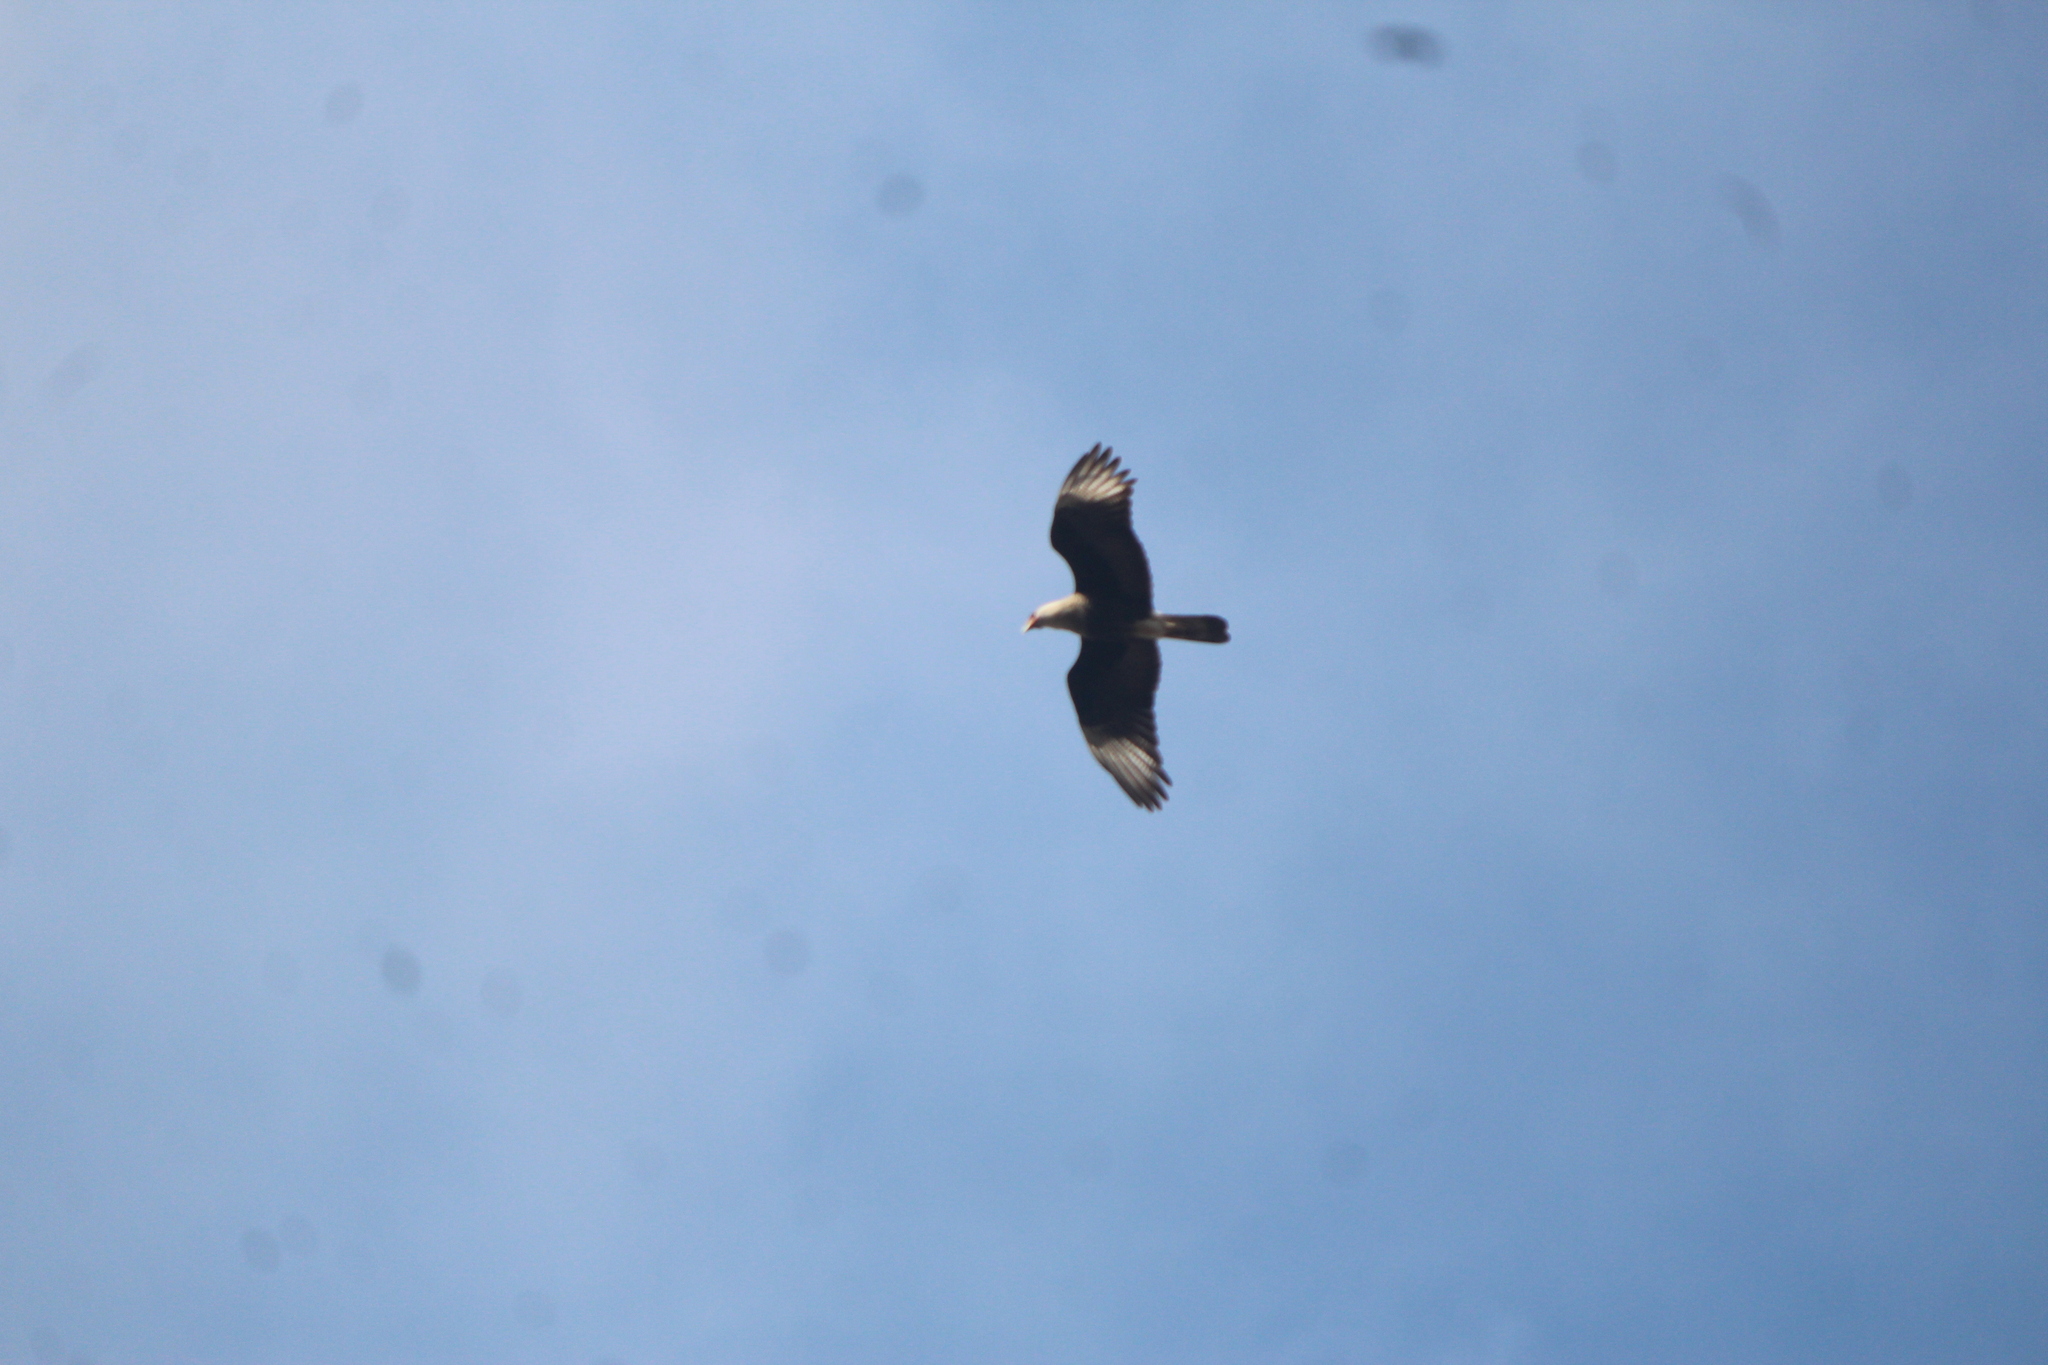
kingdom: Animalia
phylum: Chordata
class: Aves
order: Falconiformes
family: Falconidae
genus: Caracara
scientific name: Caracara plancus
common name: Southern caracara
